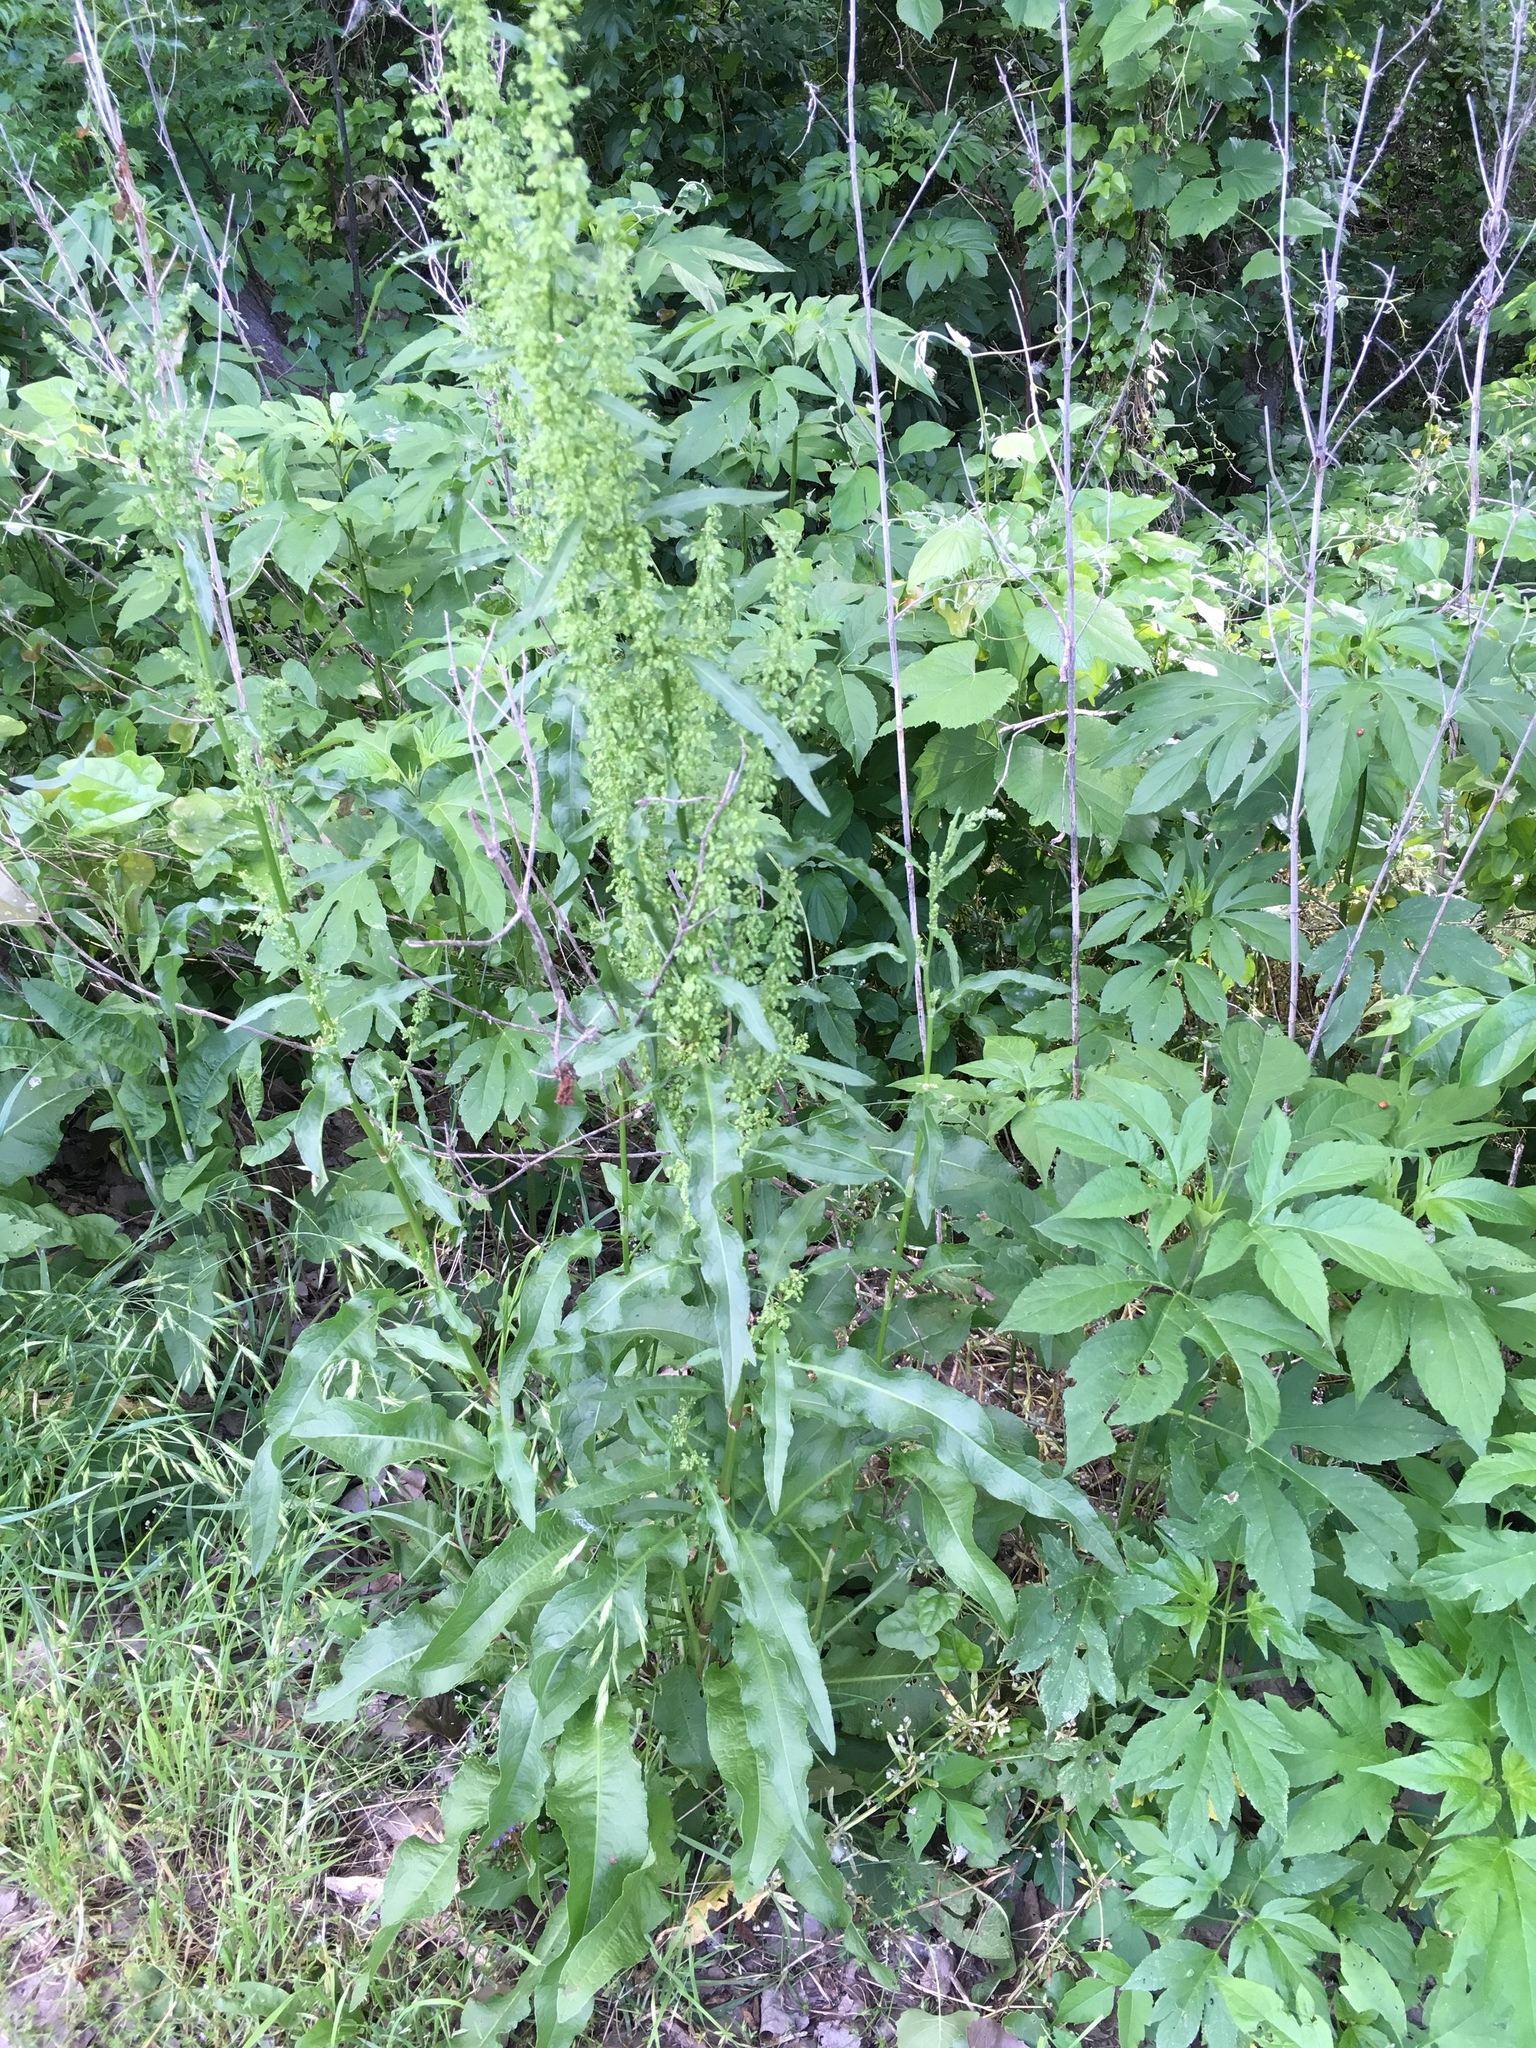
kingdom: Plantae
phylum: Tracheophyta
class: Magnoliopsida
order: Caryophyllales
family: Polygonaceae
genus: Rumex
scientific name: Rumex crispus
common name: Curled dock
